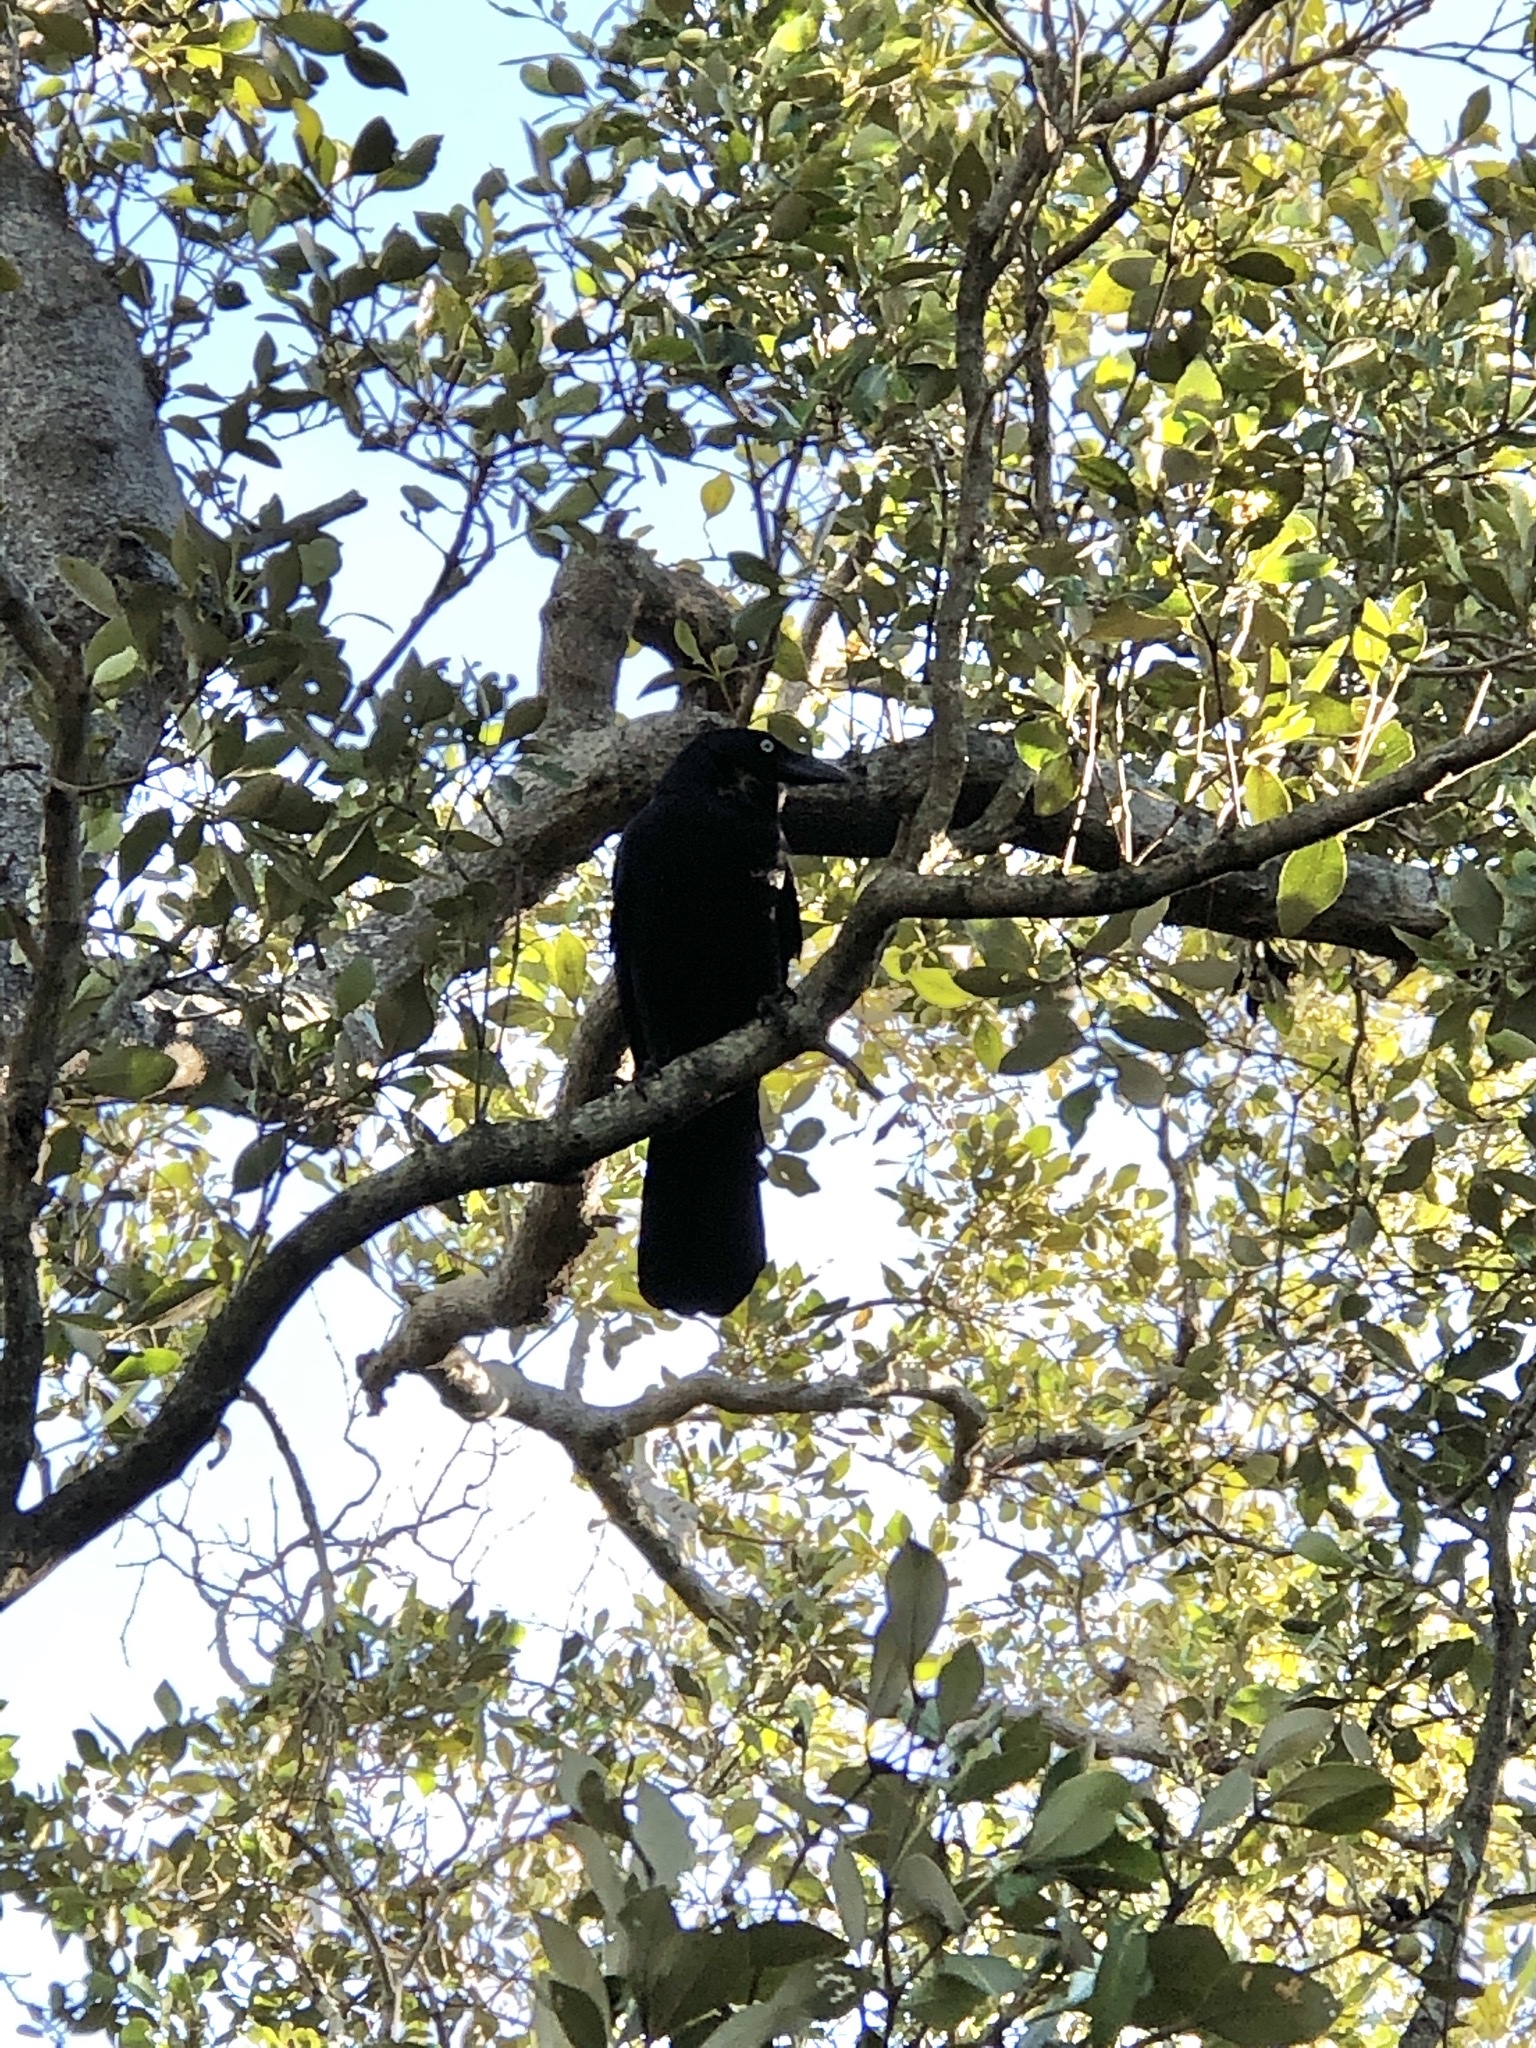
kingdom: Animalia
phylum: Chordata
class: Aves
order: Passeriformes
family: Corvidae
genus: Corvus
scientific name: Corvus orru
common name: Torresian crow
